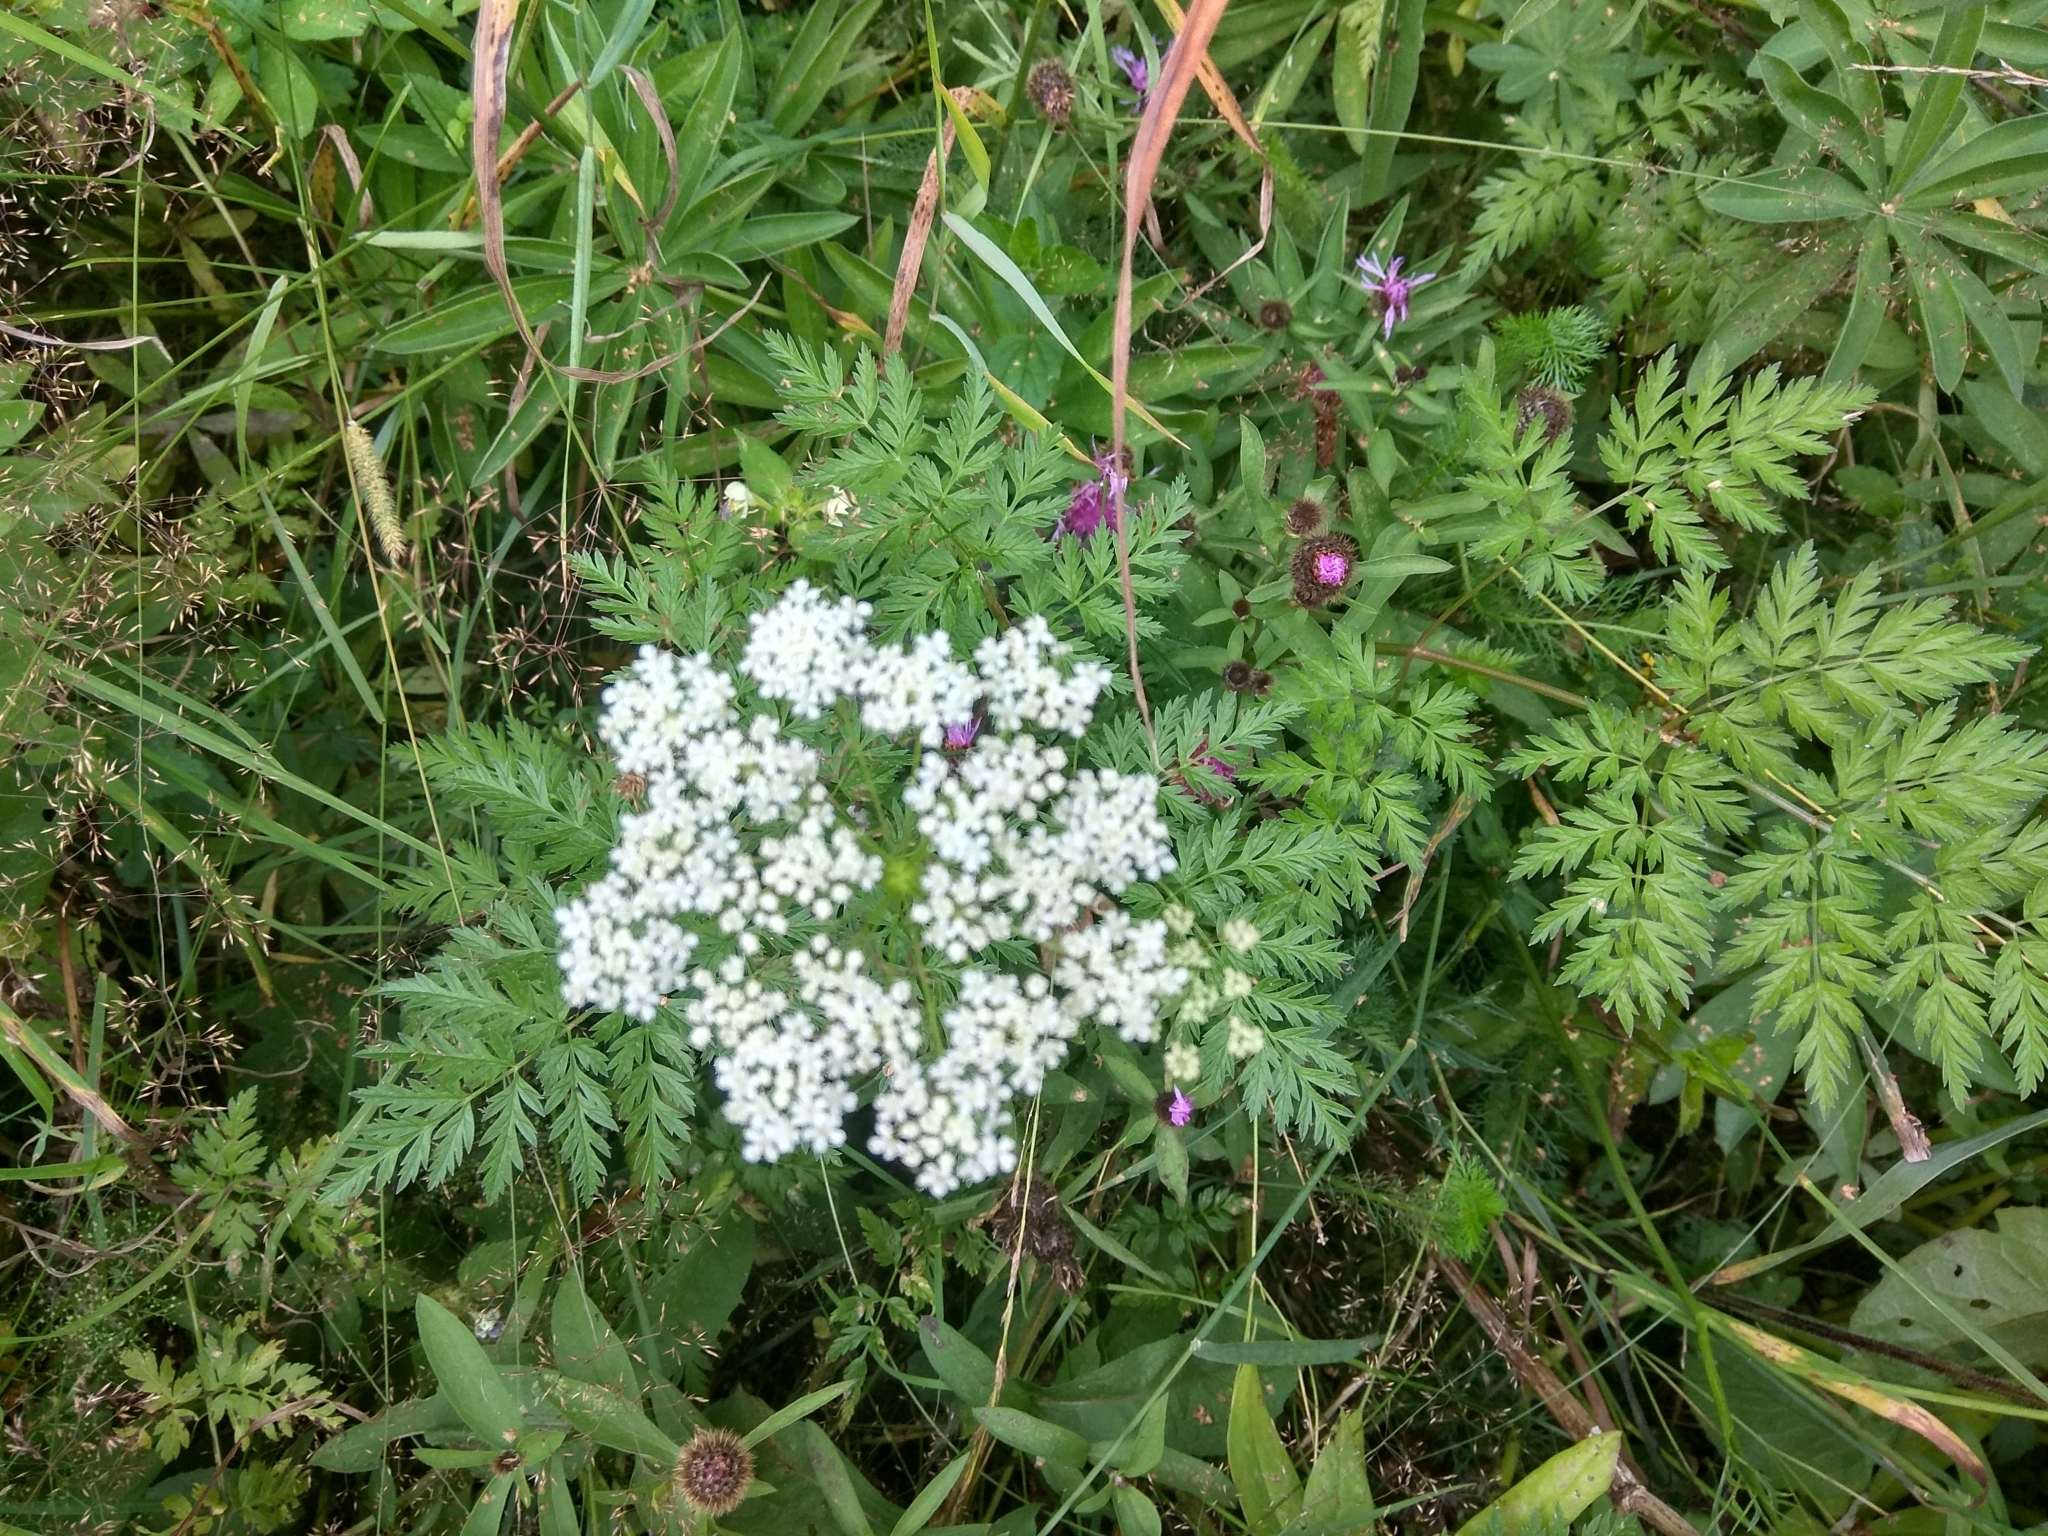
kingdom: Plantae
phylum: Tracheophyta
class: Magnoliopsida
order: Apiales
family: Apiaceae
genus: Anthriscus
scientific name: Anthriscus sylvestris
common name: Cow parsley
